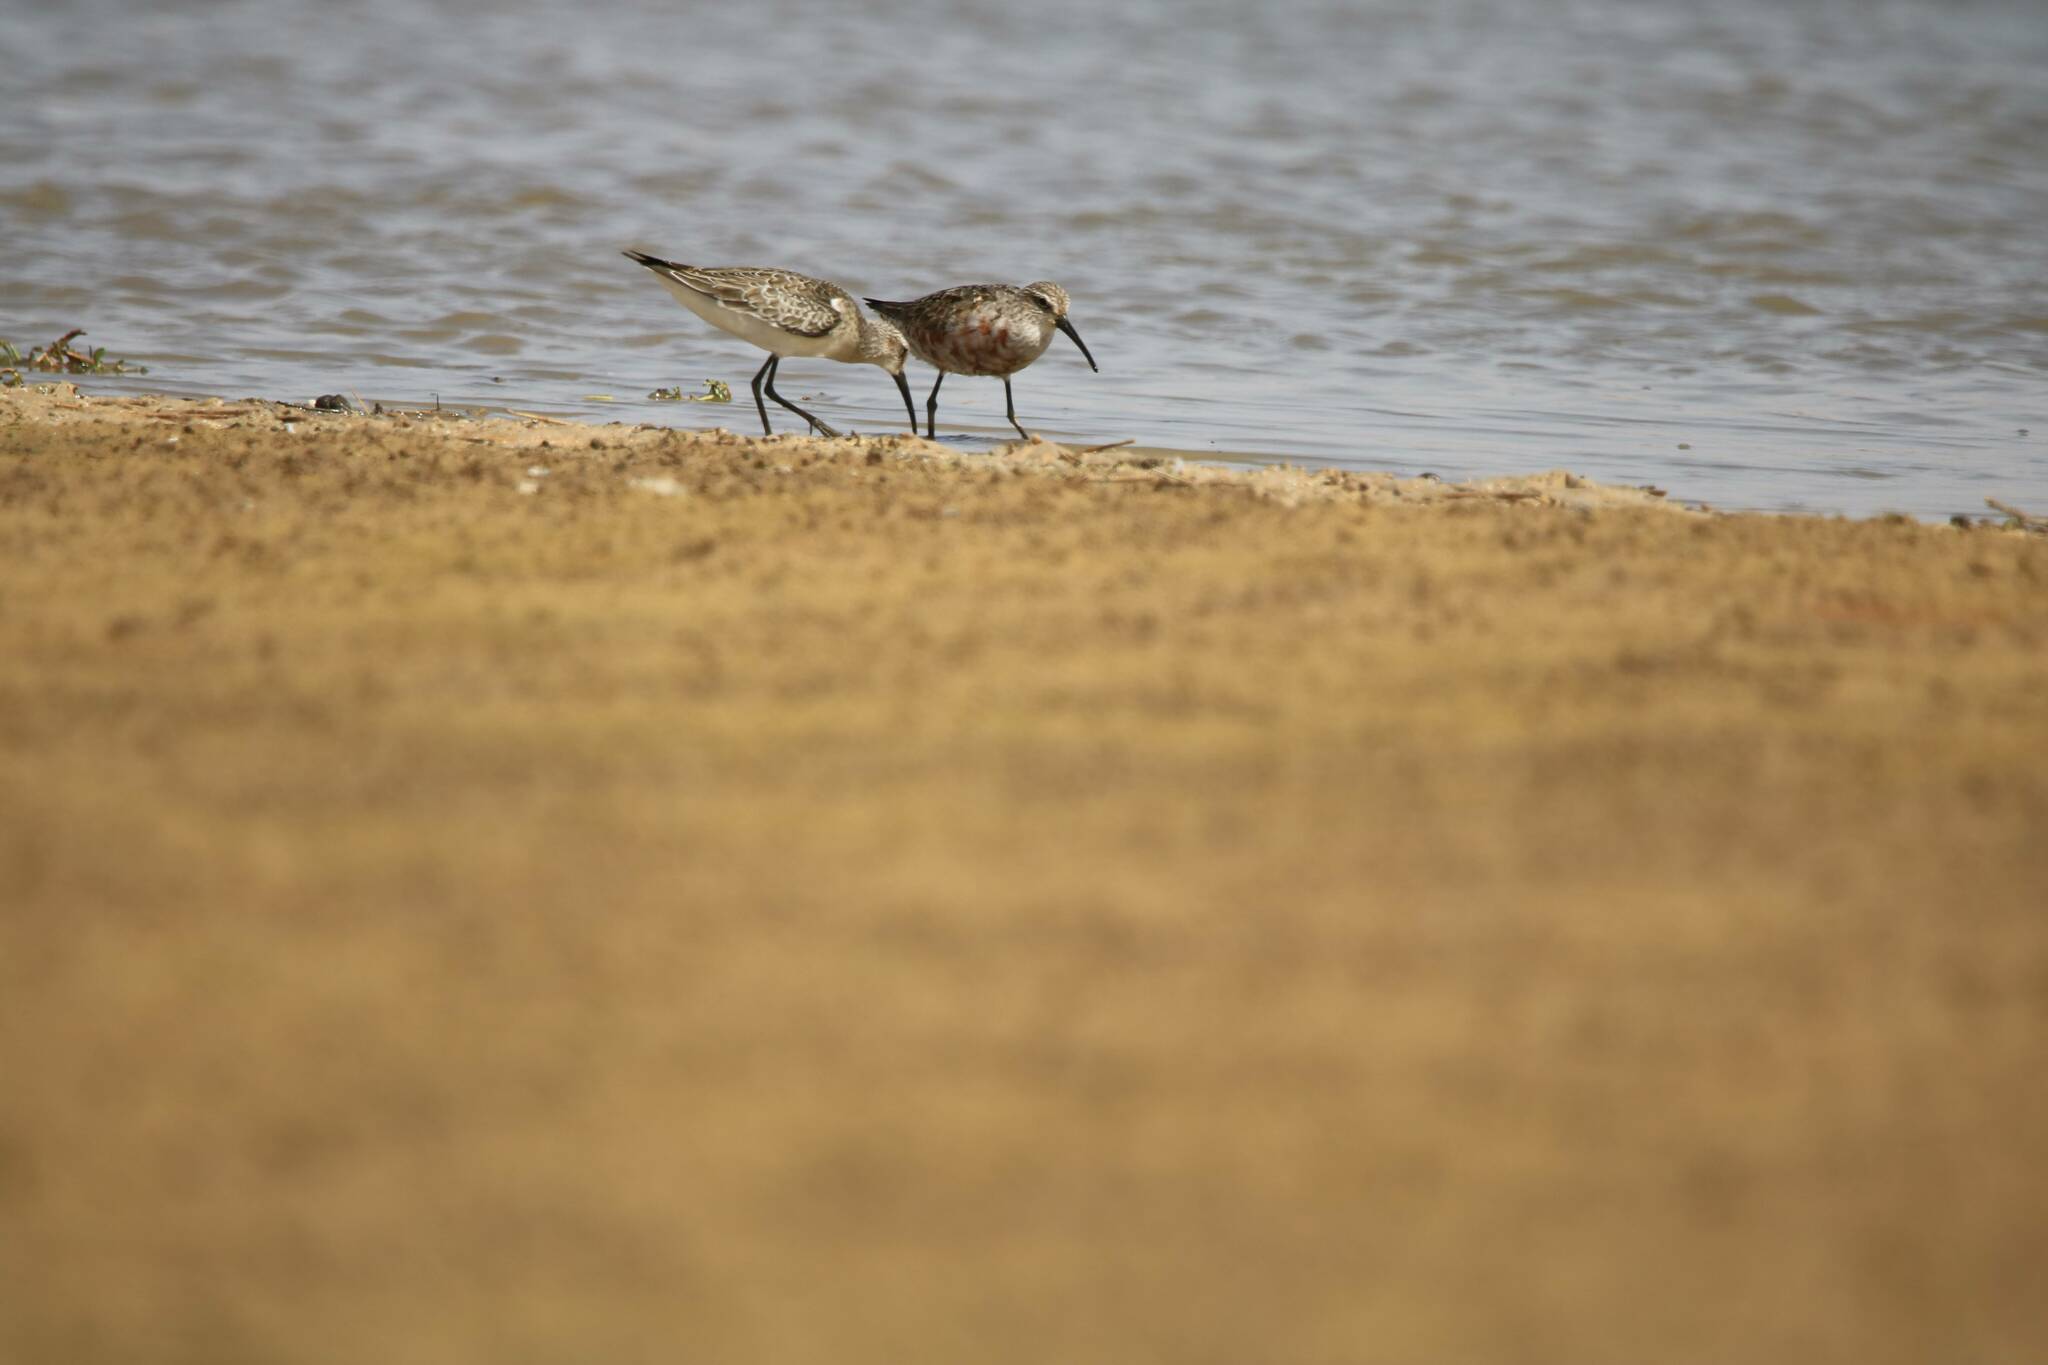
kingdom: Animalia
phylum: Chordata
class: Aves
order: Charadriiformes
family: Scolopacidae
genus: Calidris
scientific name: Calidris ferruginea
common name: Curlew sandpiper
